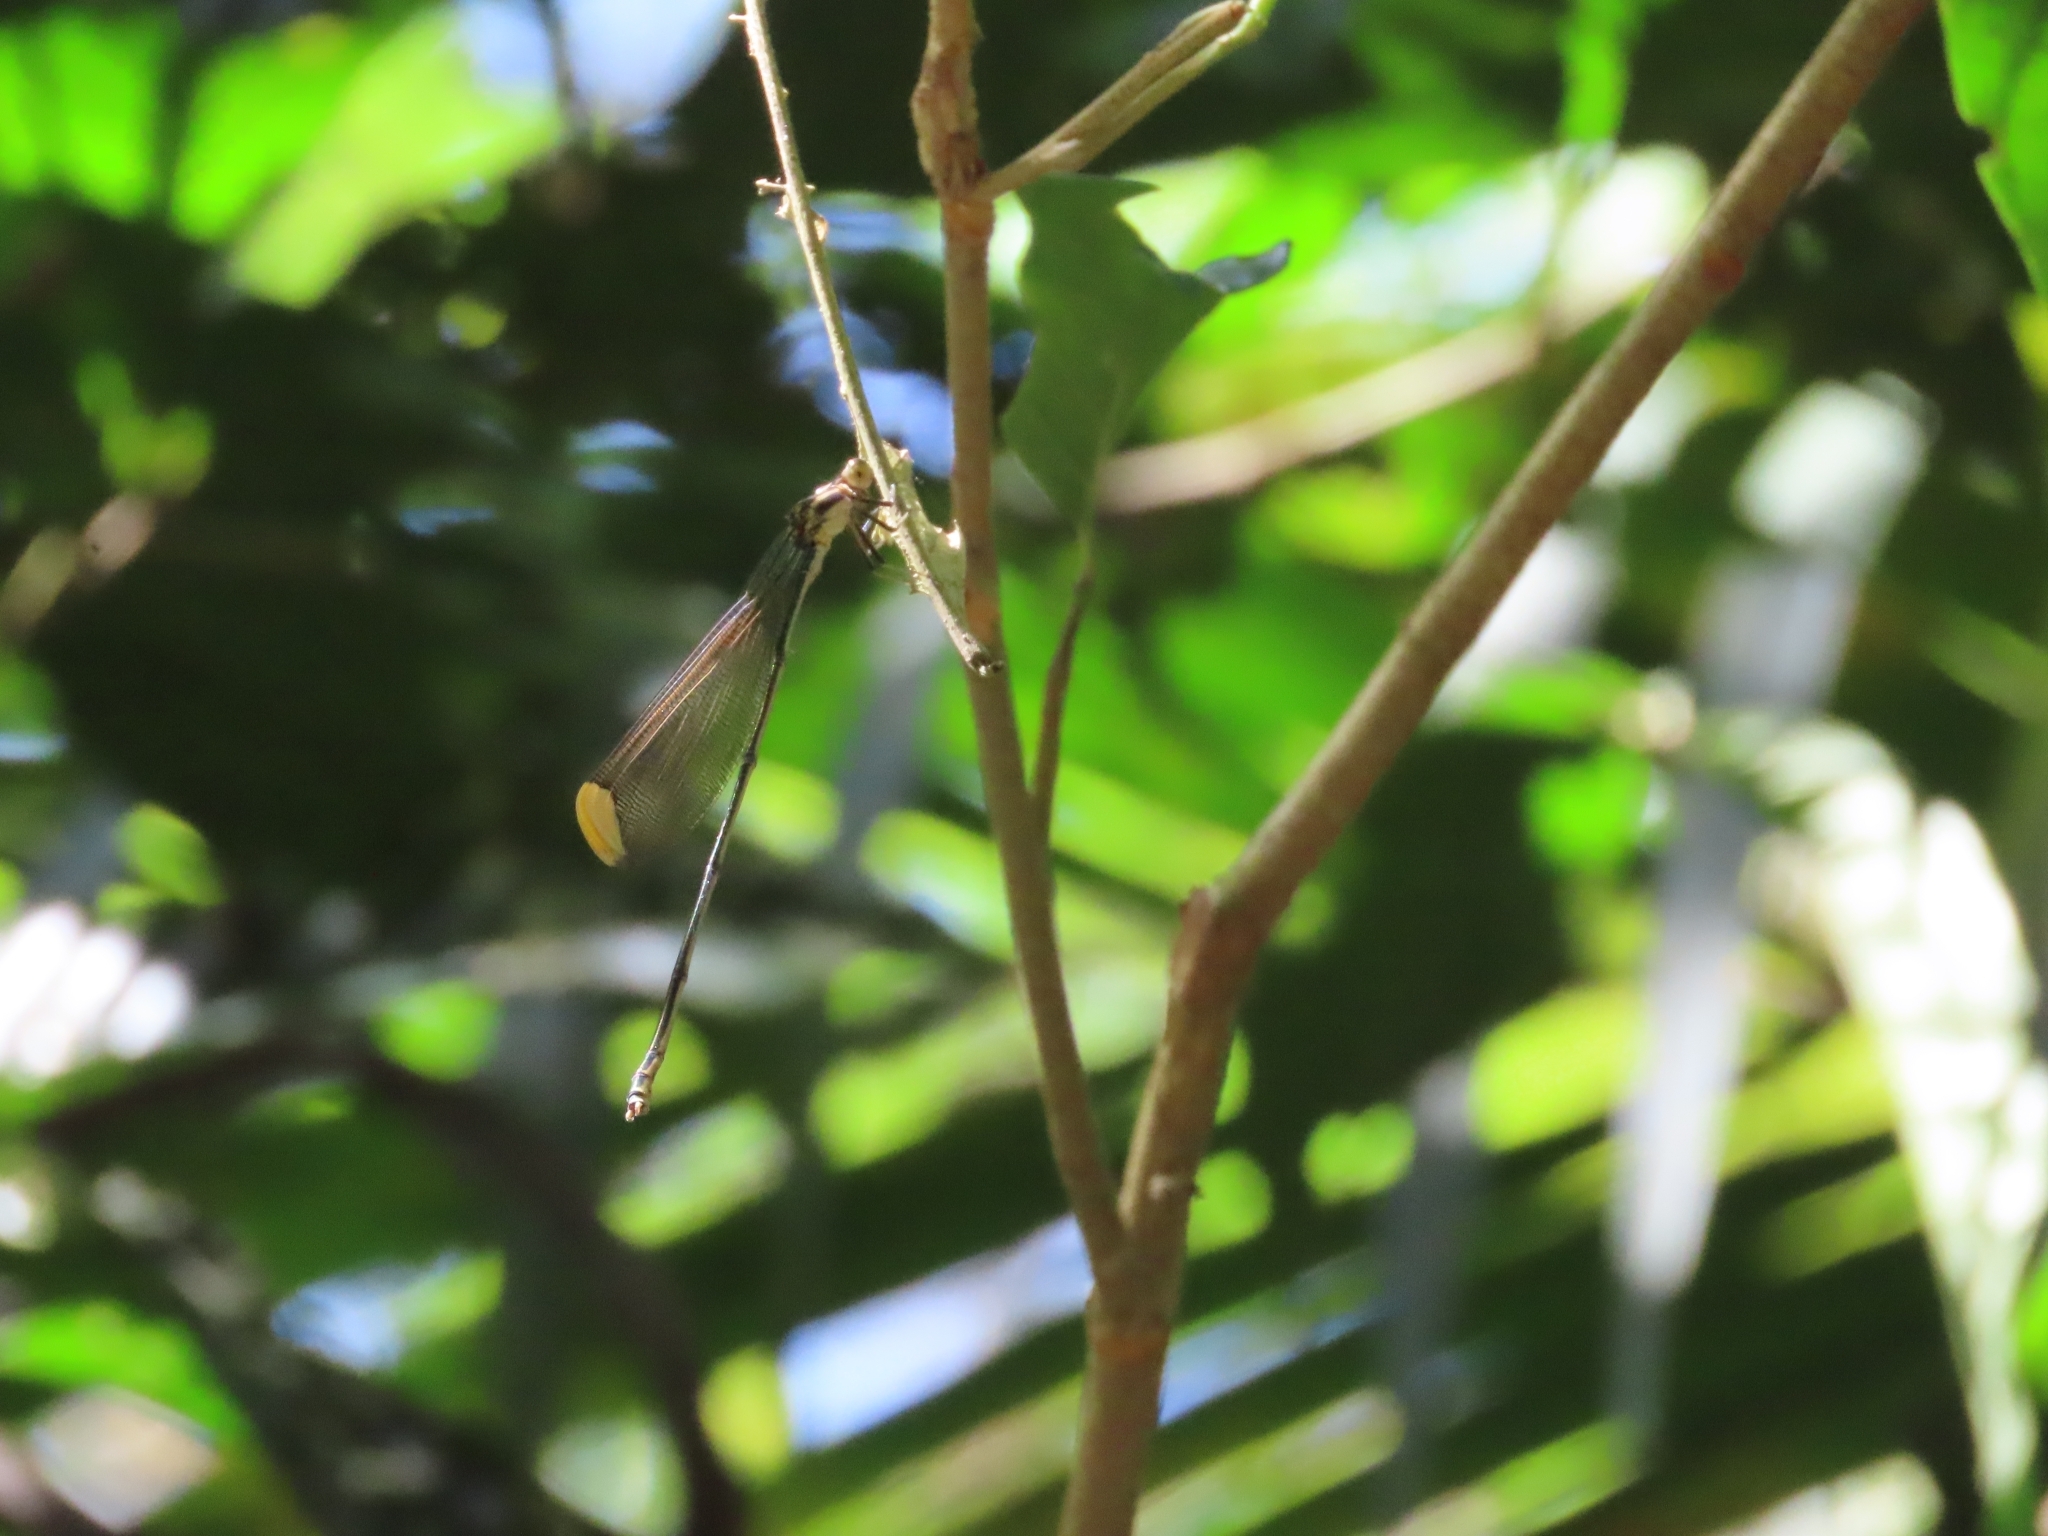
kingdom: Animalia
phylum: Arthropoda
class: Insecta
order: Odonata
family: Coenagrionidae
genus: Mecistogaster
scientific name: Mecistogaster ornata
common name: Ornate helicopter
